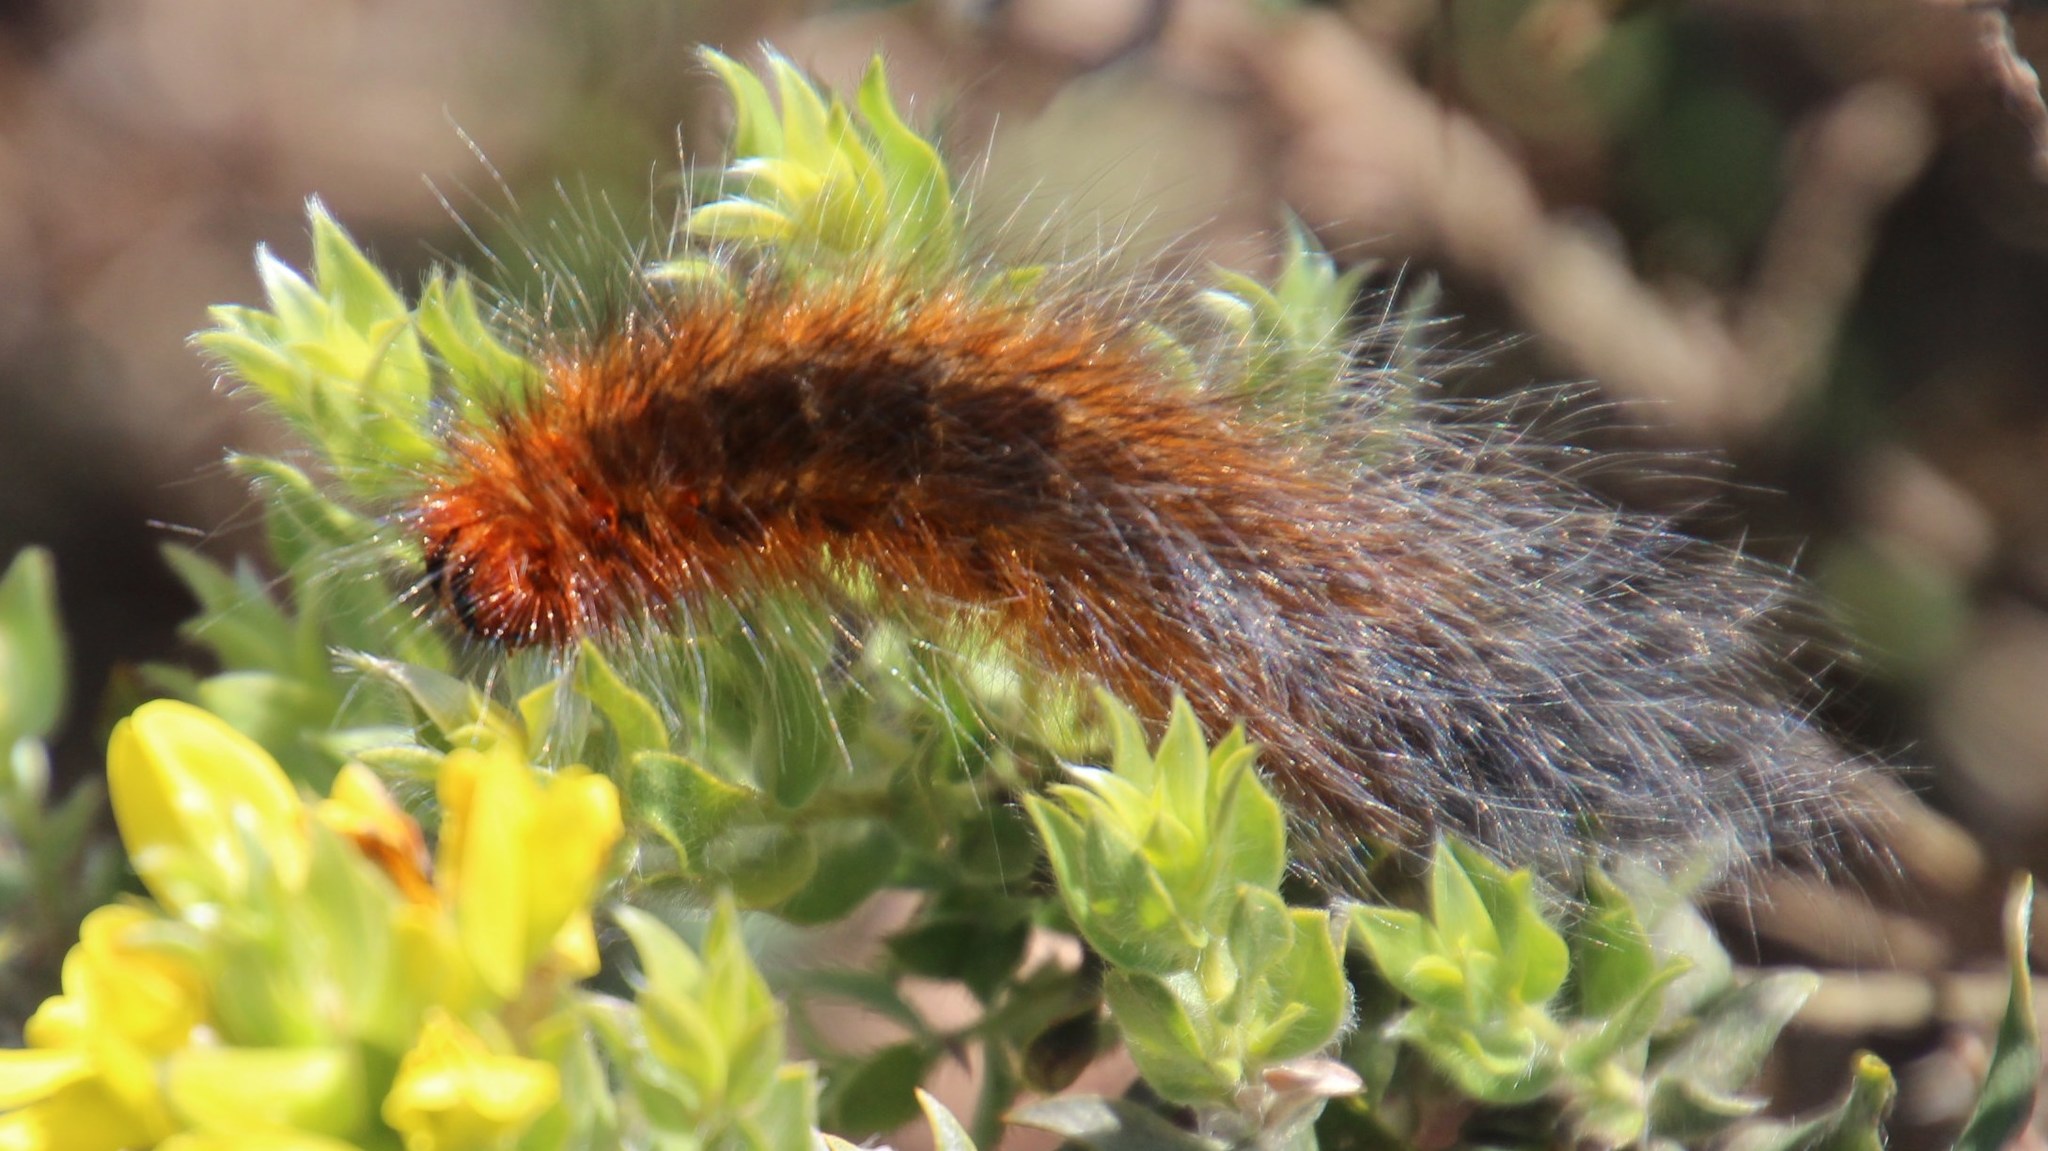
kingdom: Animalia
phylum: Arthropoda
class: Insecta
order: Lepidoptera
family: Lasiocampidae
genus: Mesocelis
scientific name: Mesocelis monticola
